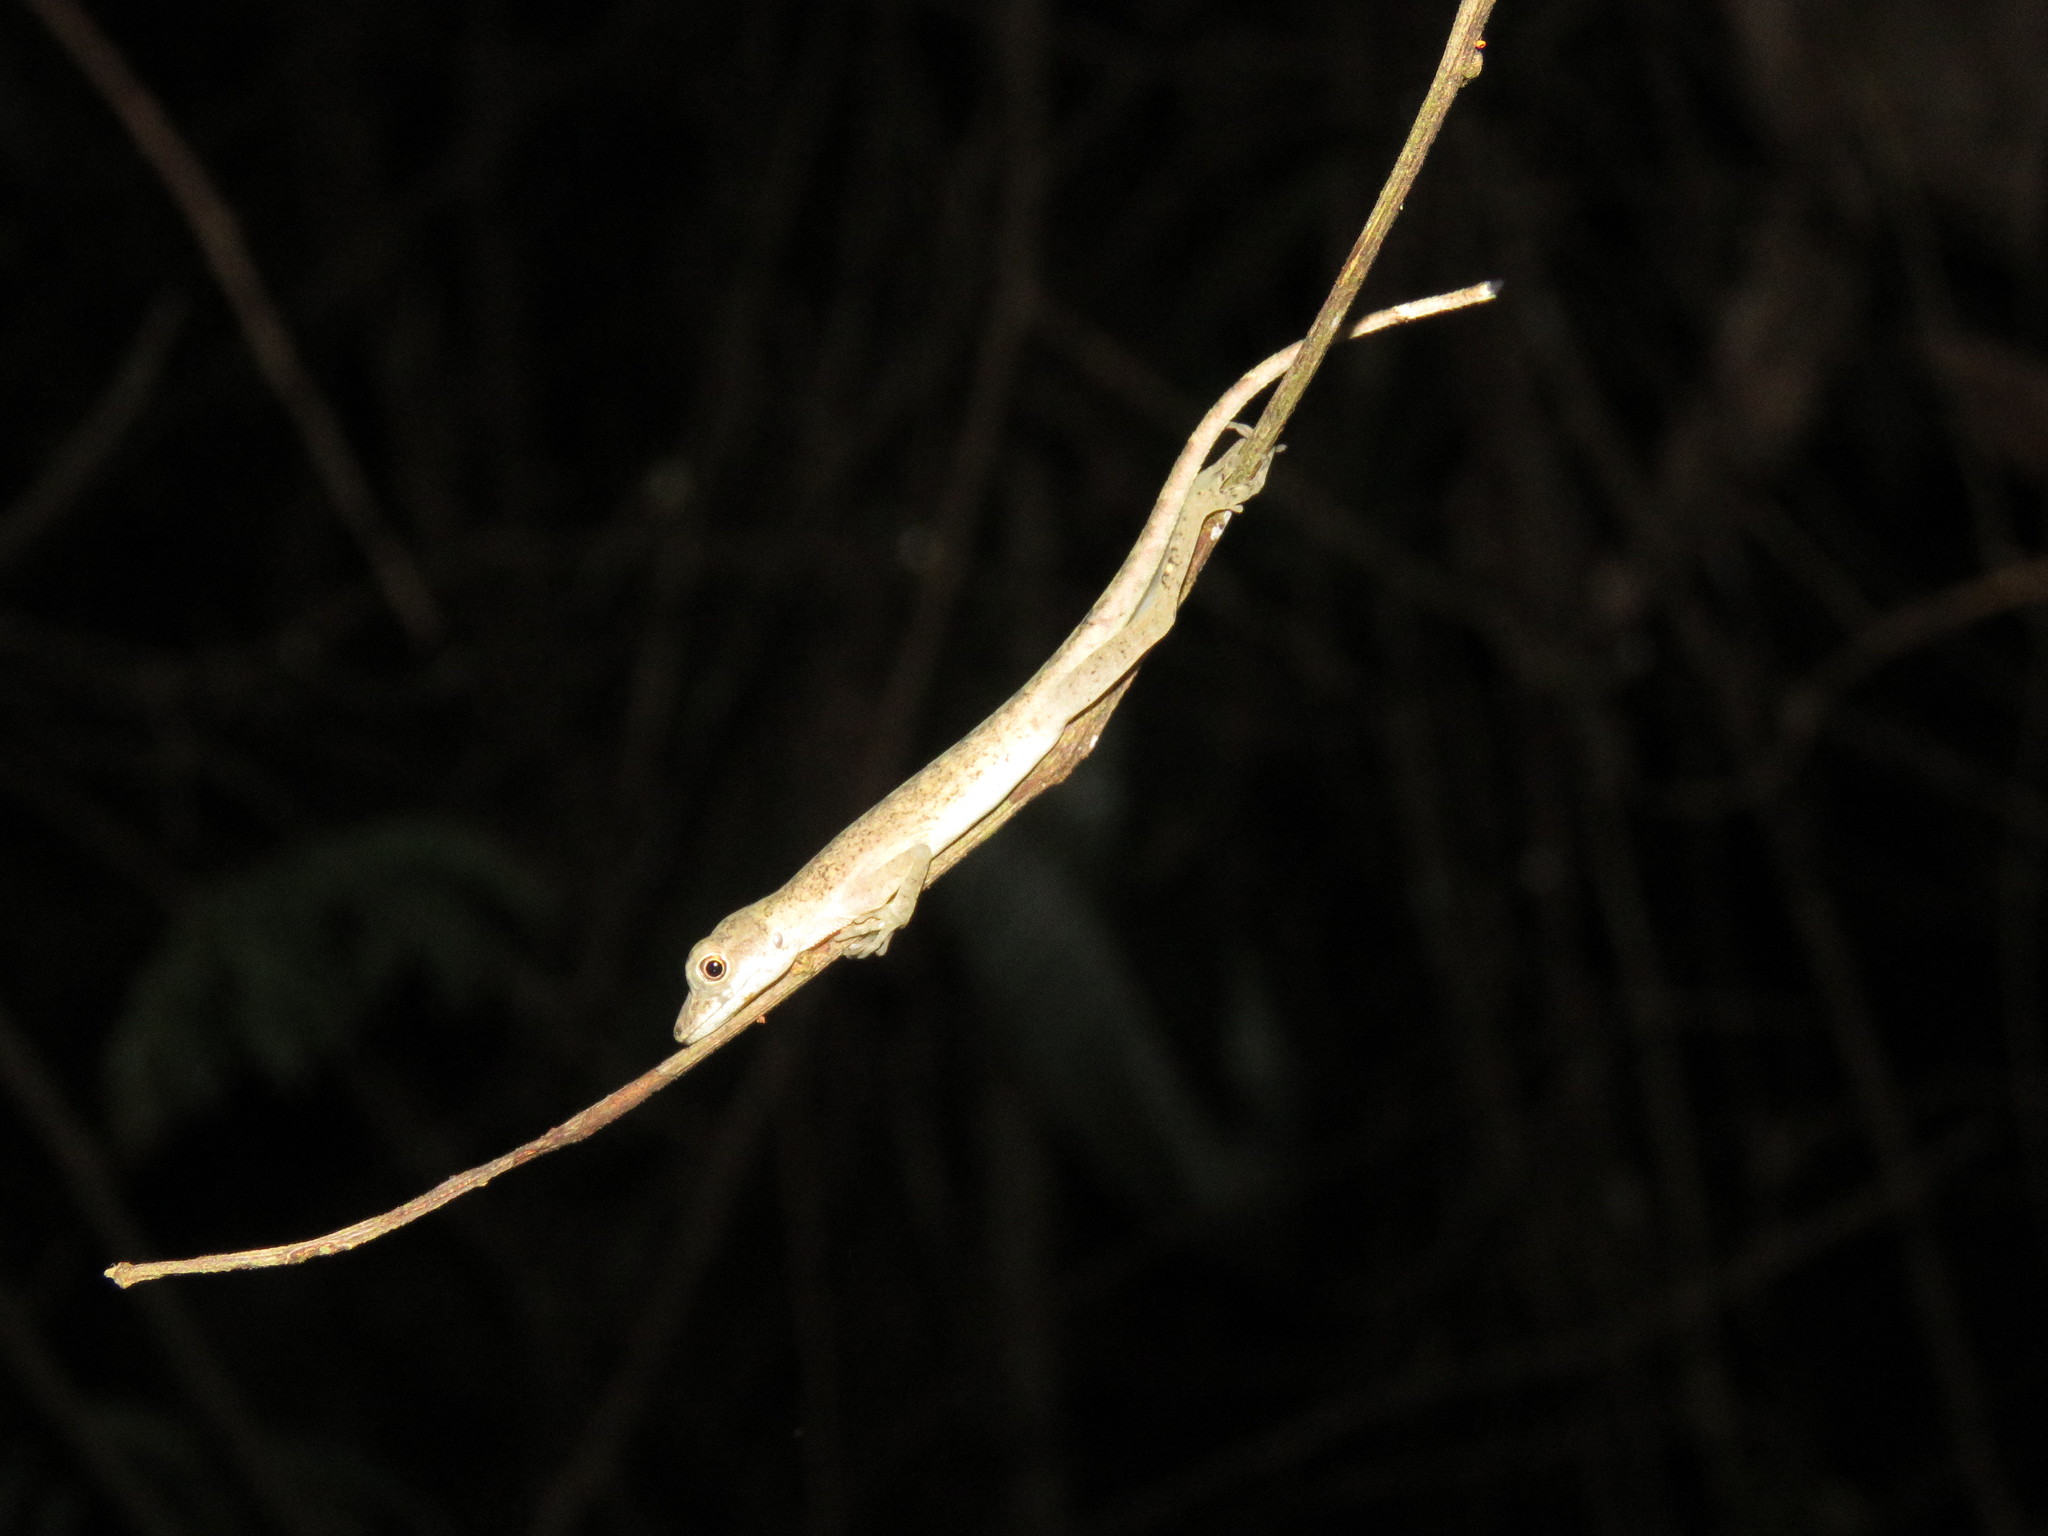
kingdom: Animalia
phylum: Chordata
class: Squamata
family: Dactyloidae
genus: Anolis
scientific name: Anolis fuscoauratus
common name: Brown-eared anole
